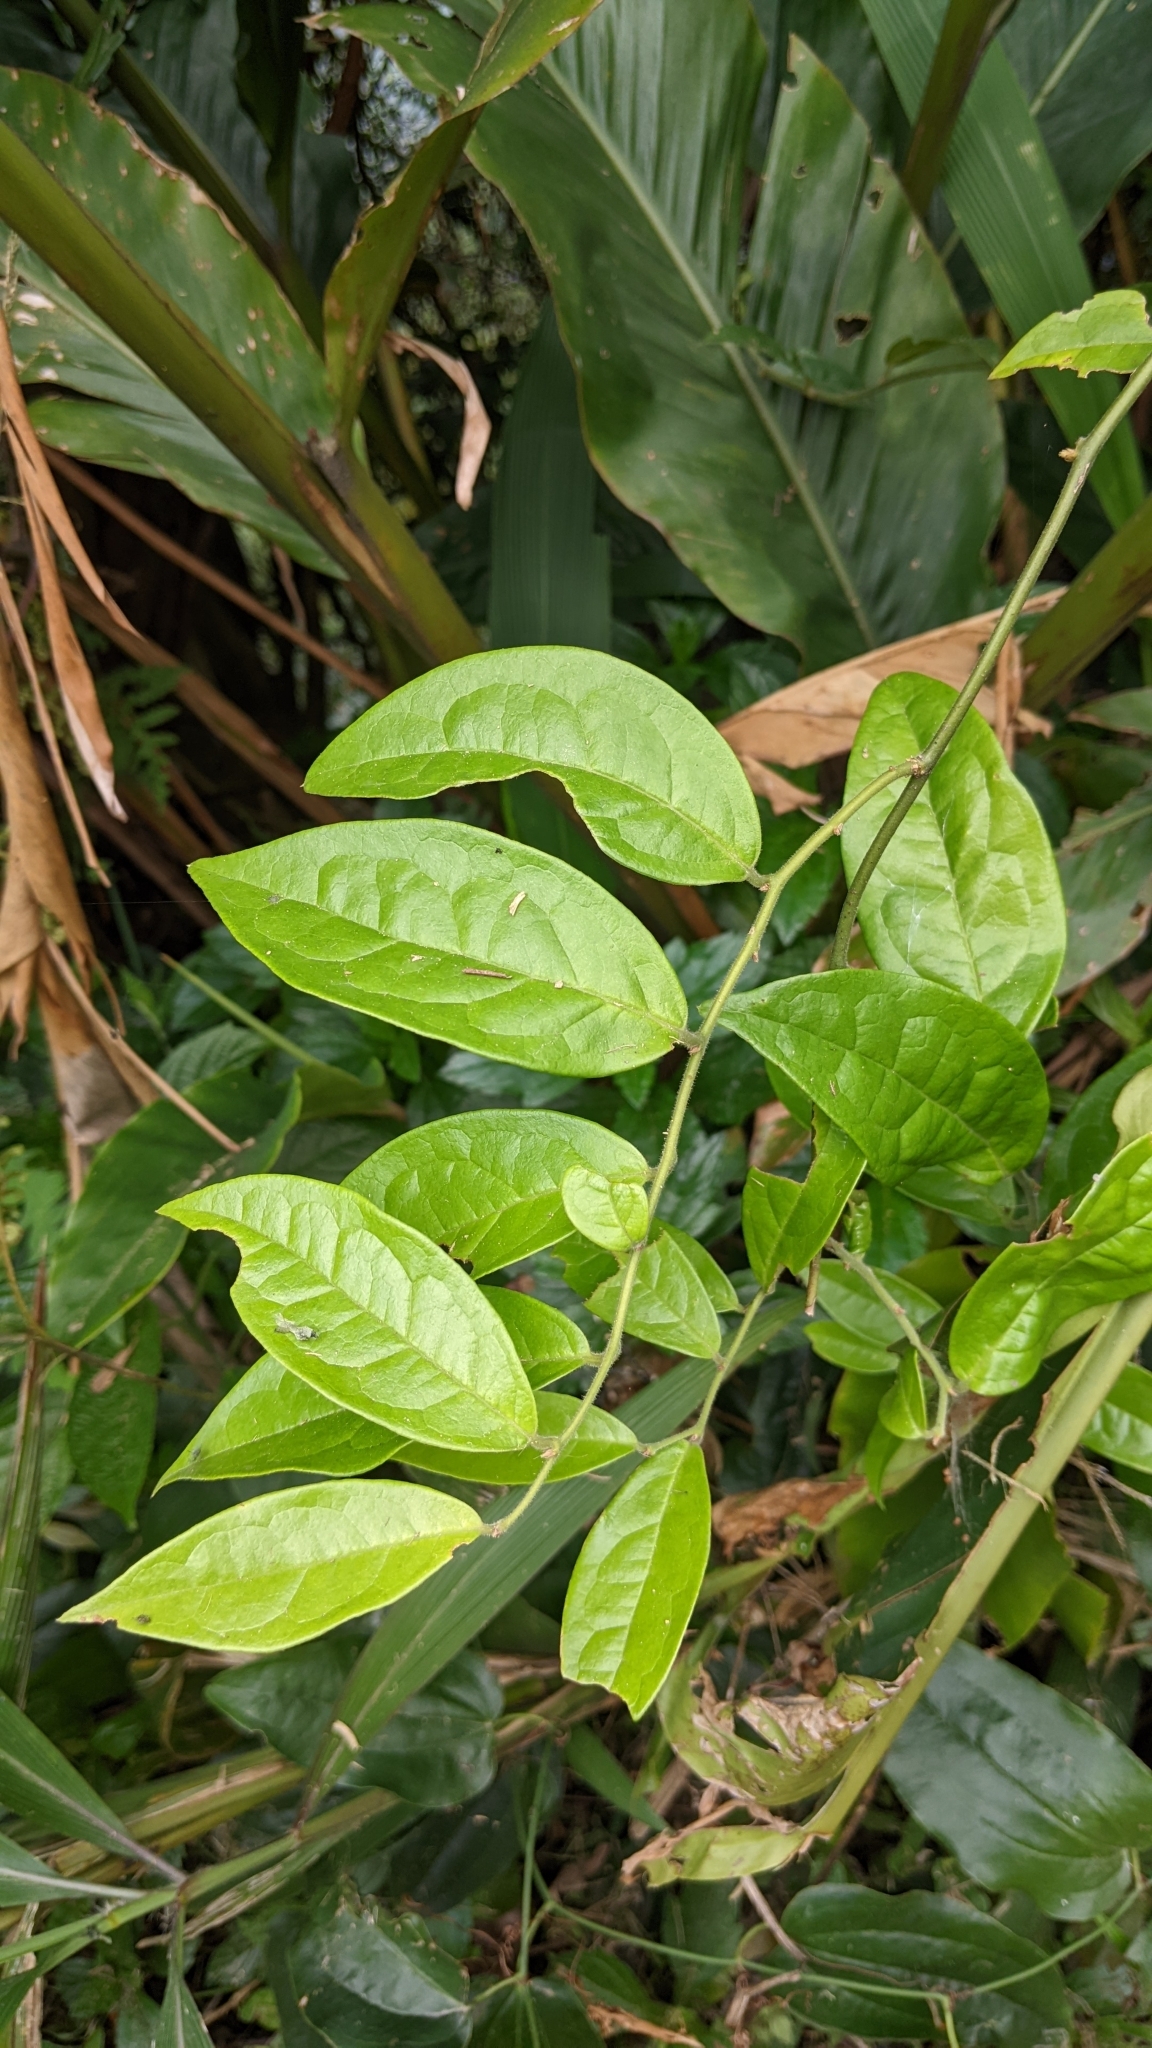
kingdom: Plantae
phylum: Tracheophyta
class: Magnoliopsida
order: Proteales
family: Sabiaceae
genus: Sabia
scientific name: Sabia swinhoei
